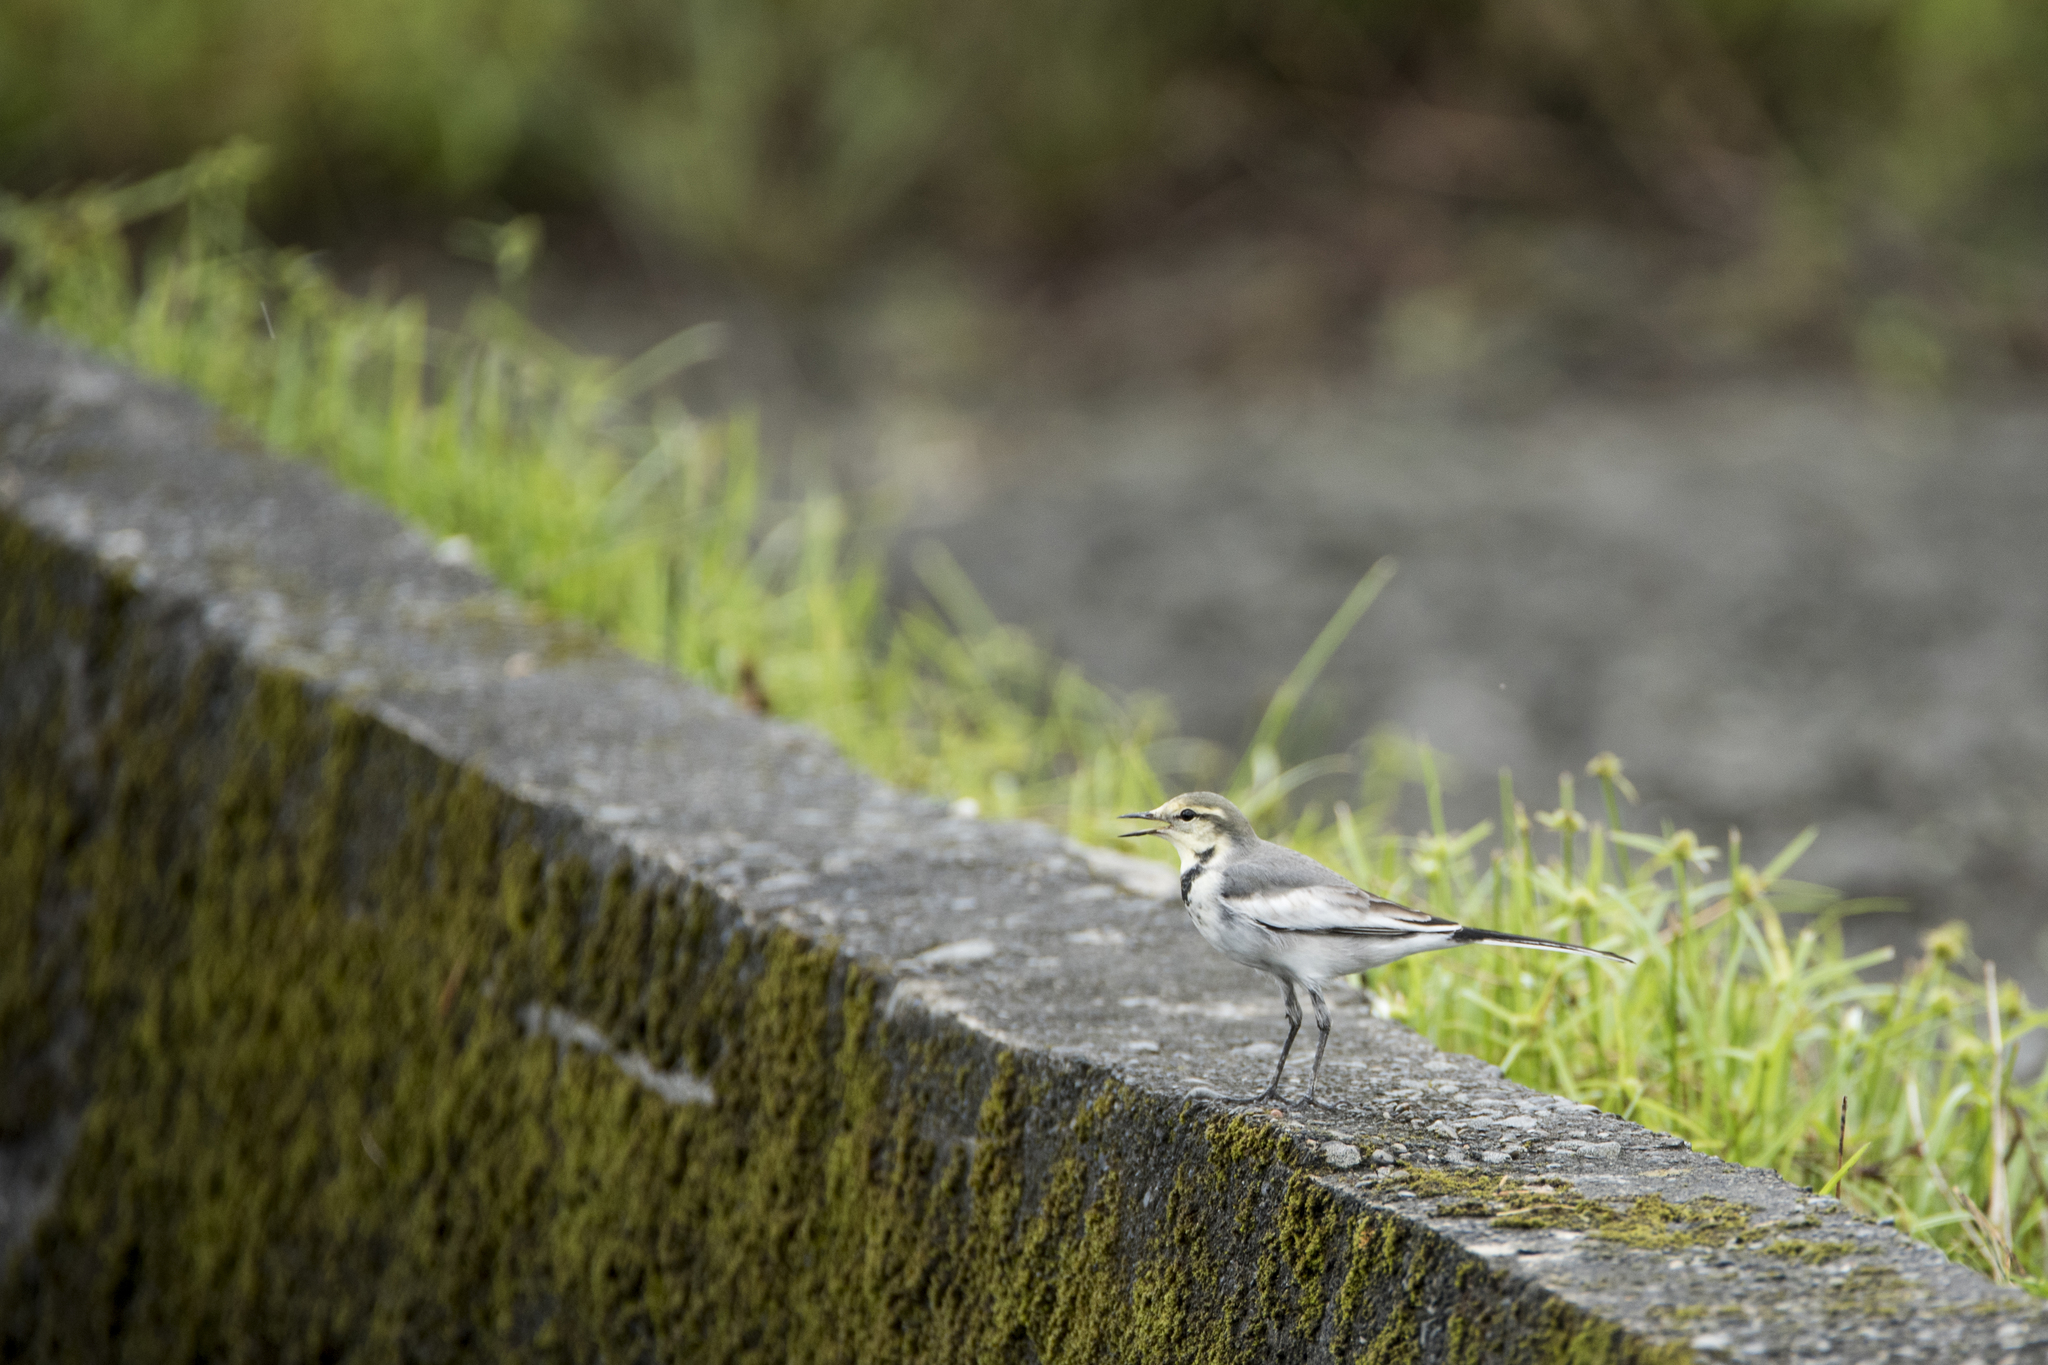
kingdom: Animalia
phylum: Chordata
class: Aves
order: Passeriformes
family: Motacillidae
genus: Motacilla
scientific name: Motacilla alba
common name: White wagtail
